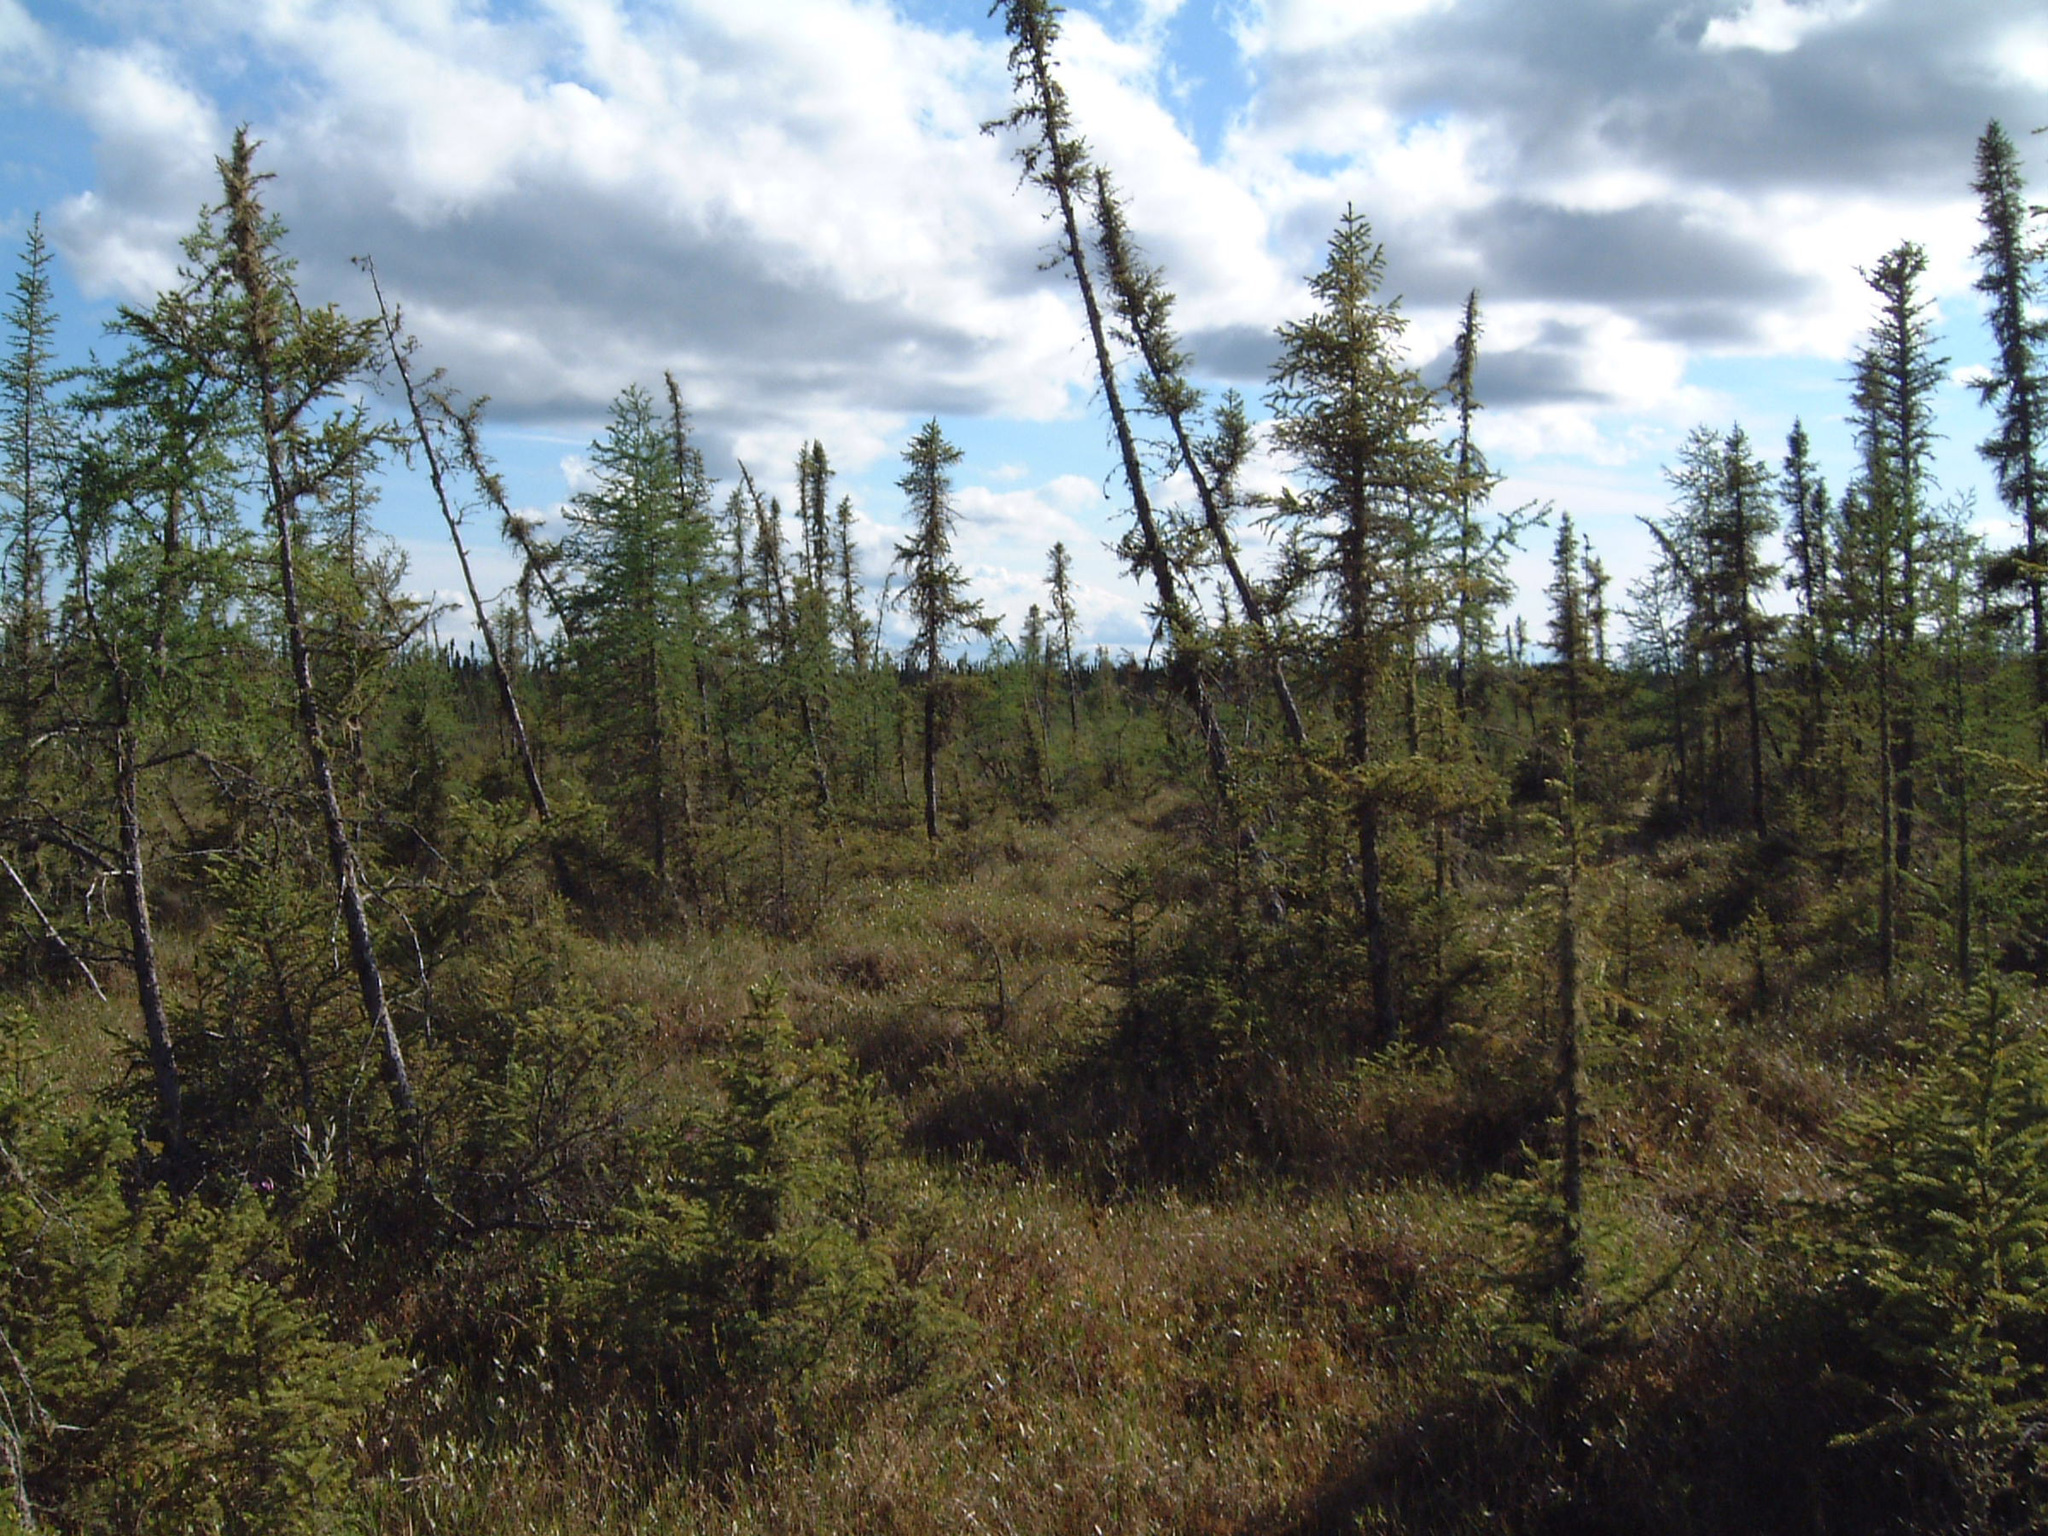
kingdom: Plantae
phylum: Tracheophyta
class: Pinopsida
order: Pinales
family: Pinaceae
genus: Picea
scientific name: Picea mariana
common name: Black spruce
